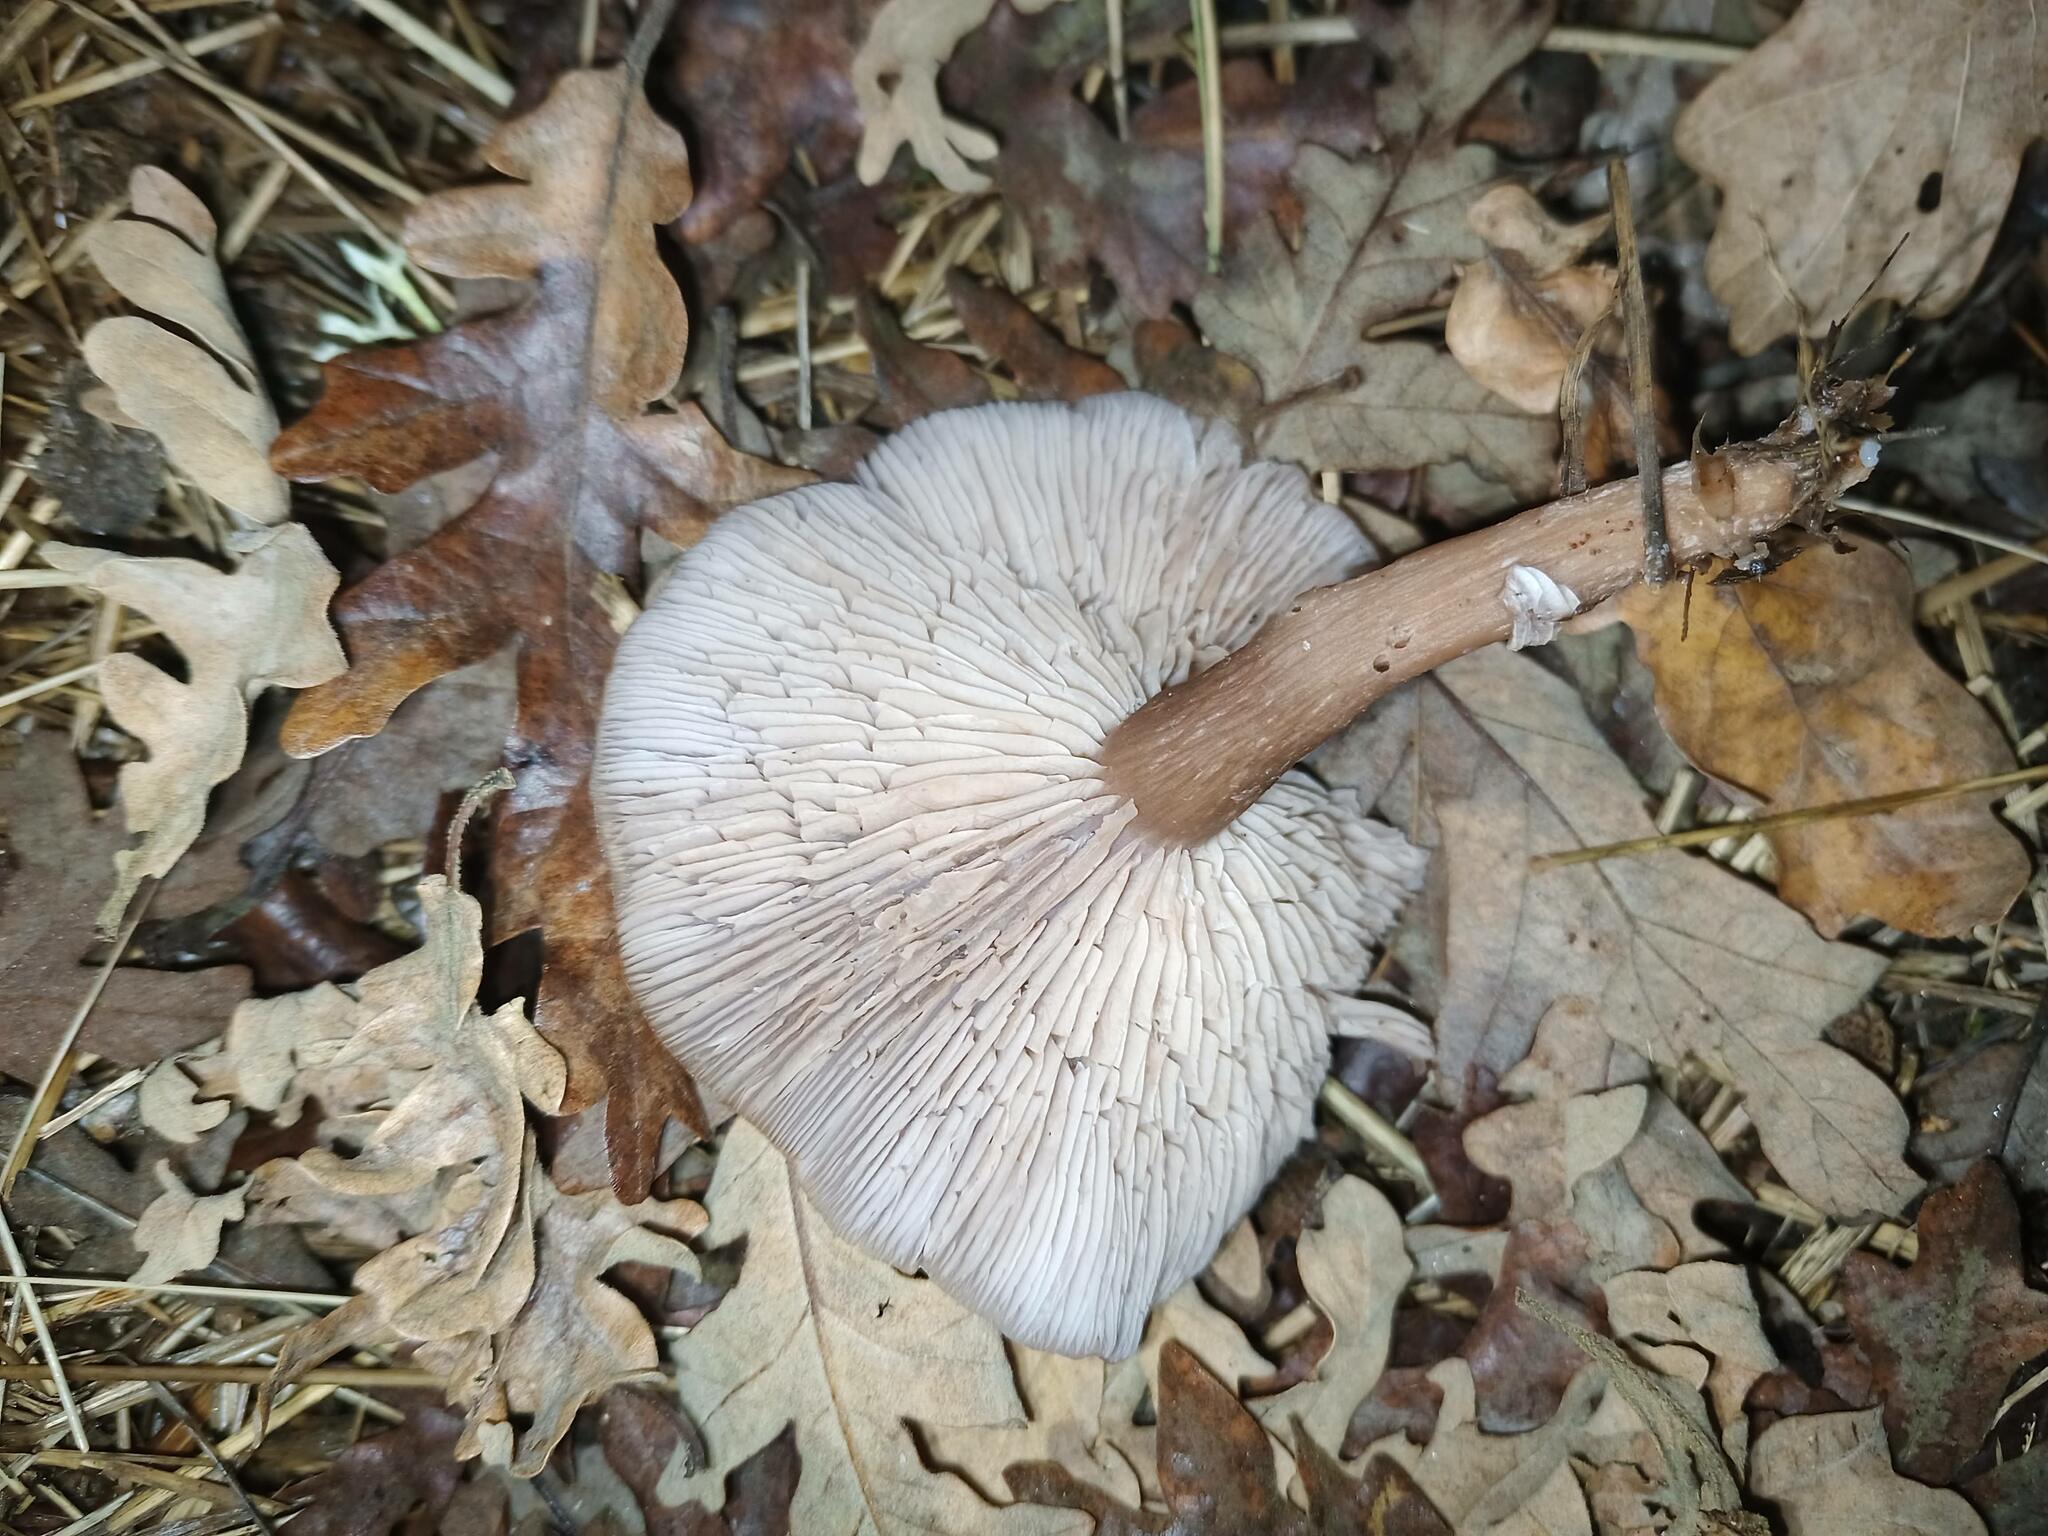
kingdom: Fungi
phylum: Basidiomycota
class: Agaricomycetes
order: Agaricales
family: Tricholomataceae
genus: Collybia
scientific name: Collybia
